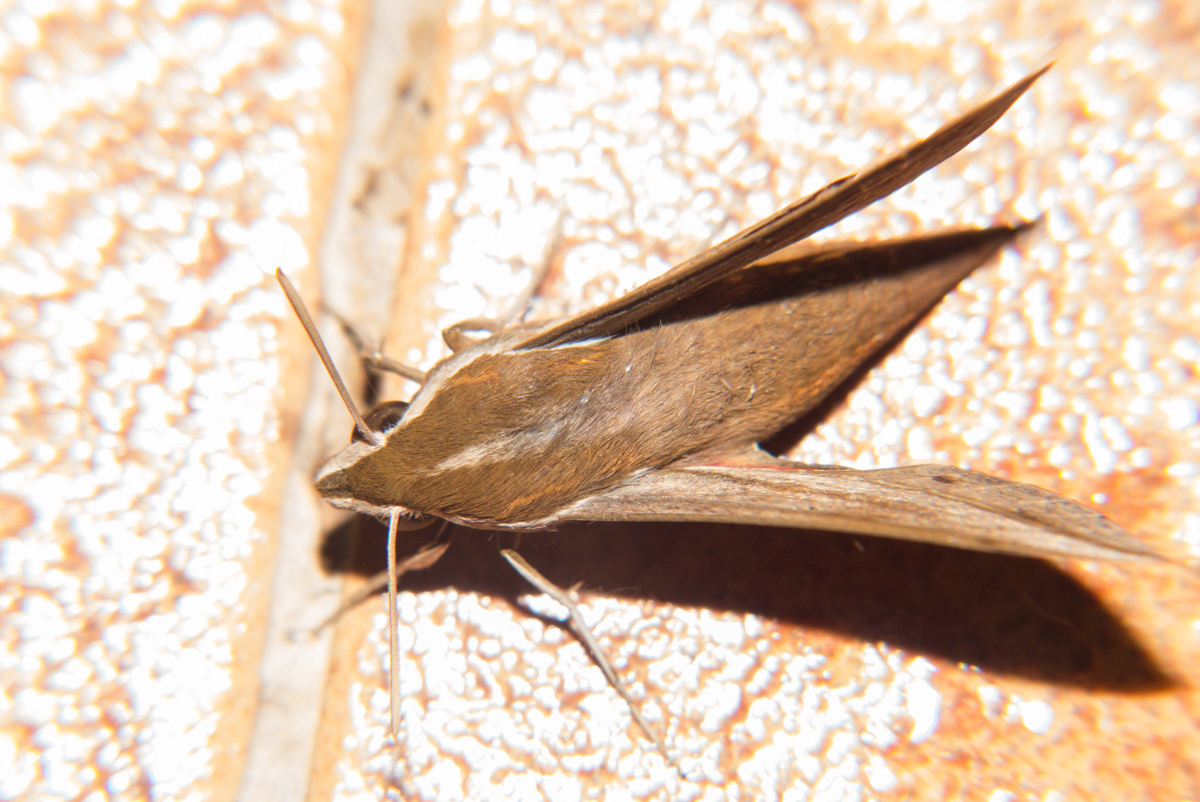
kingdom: Animalia
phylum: Arthropoda
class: Insecta
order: Lepidoptera
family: Sphingidae
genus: Hippotion
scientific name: Hippotion rosetta
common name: Vine hawk moth
